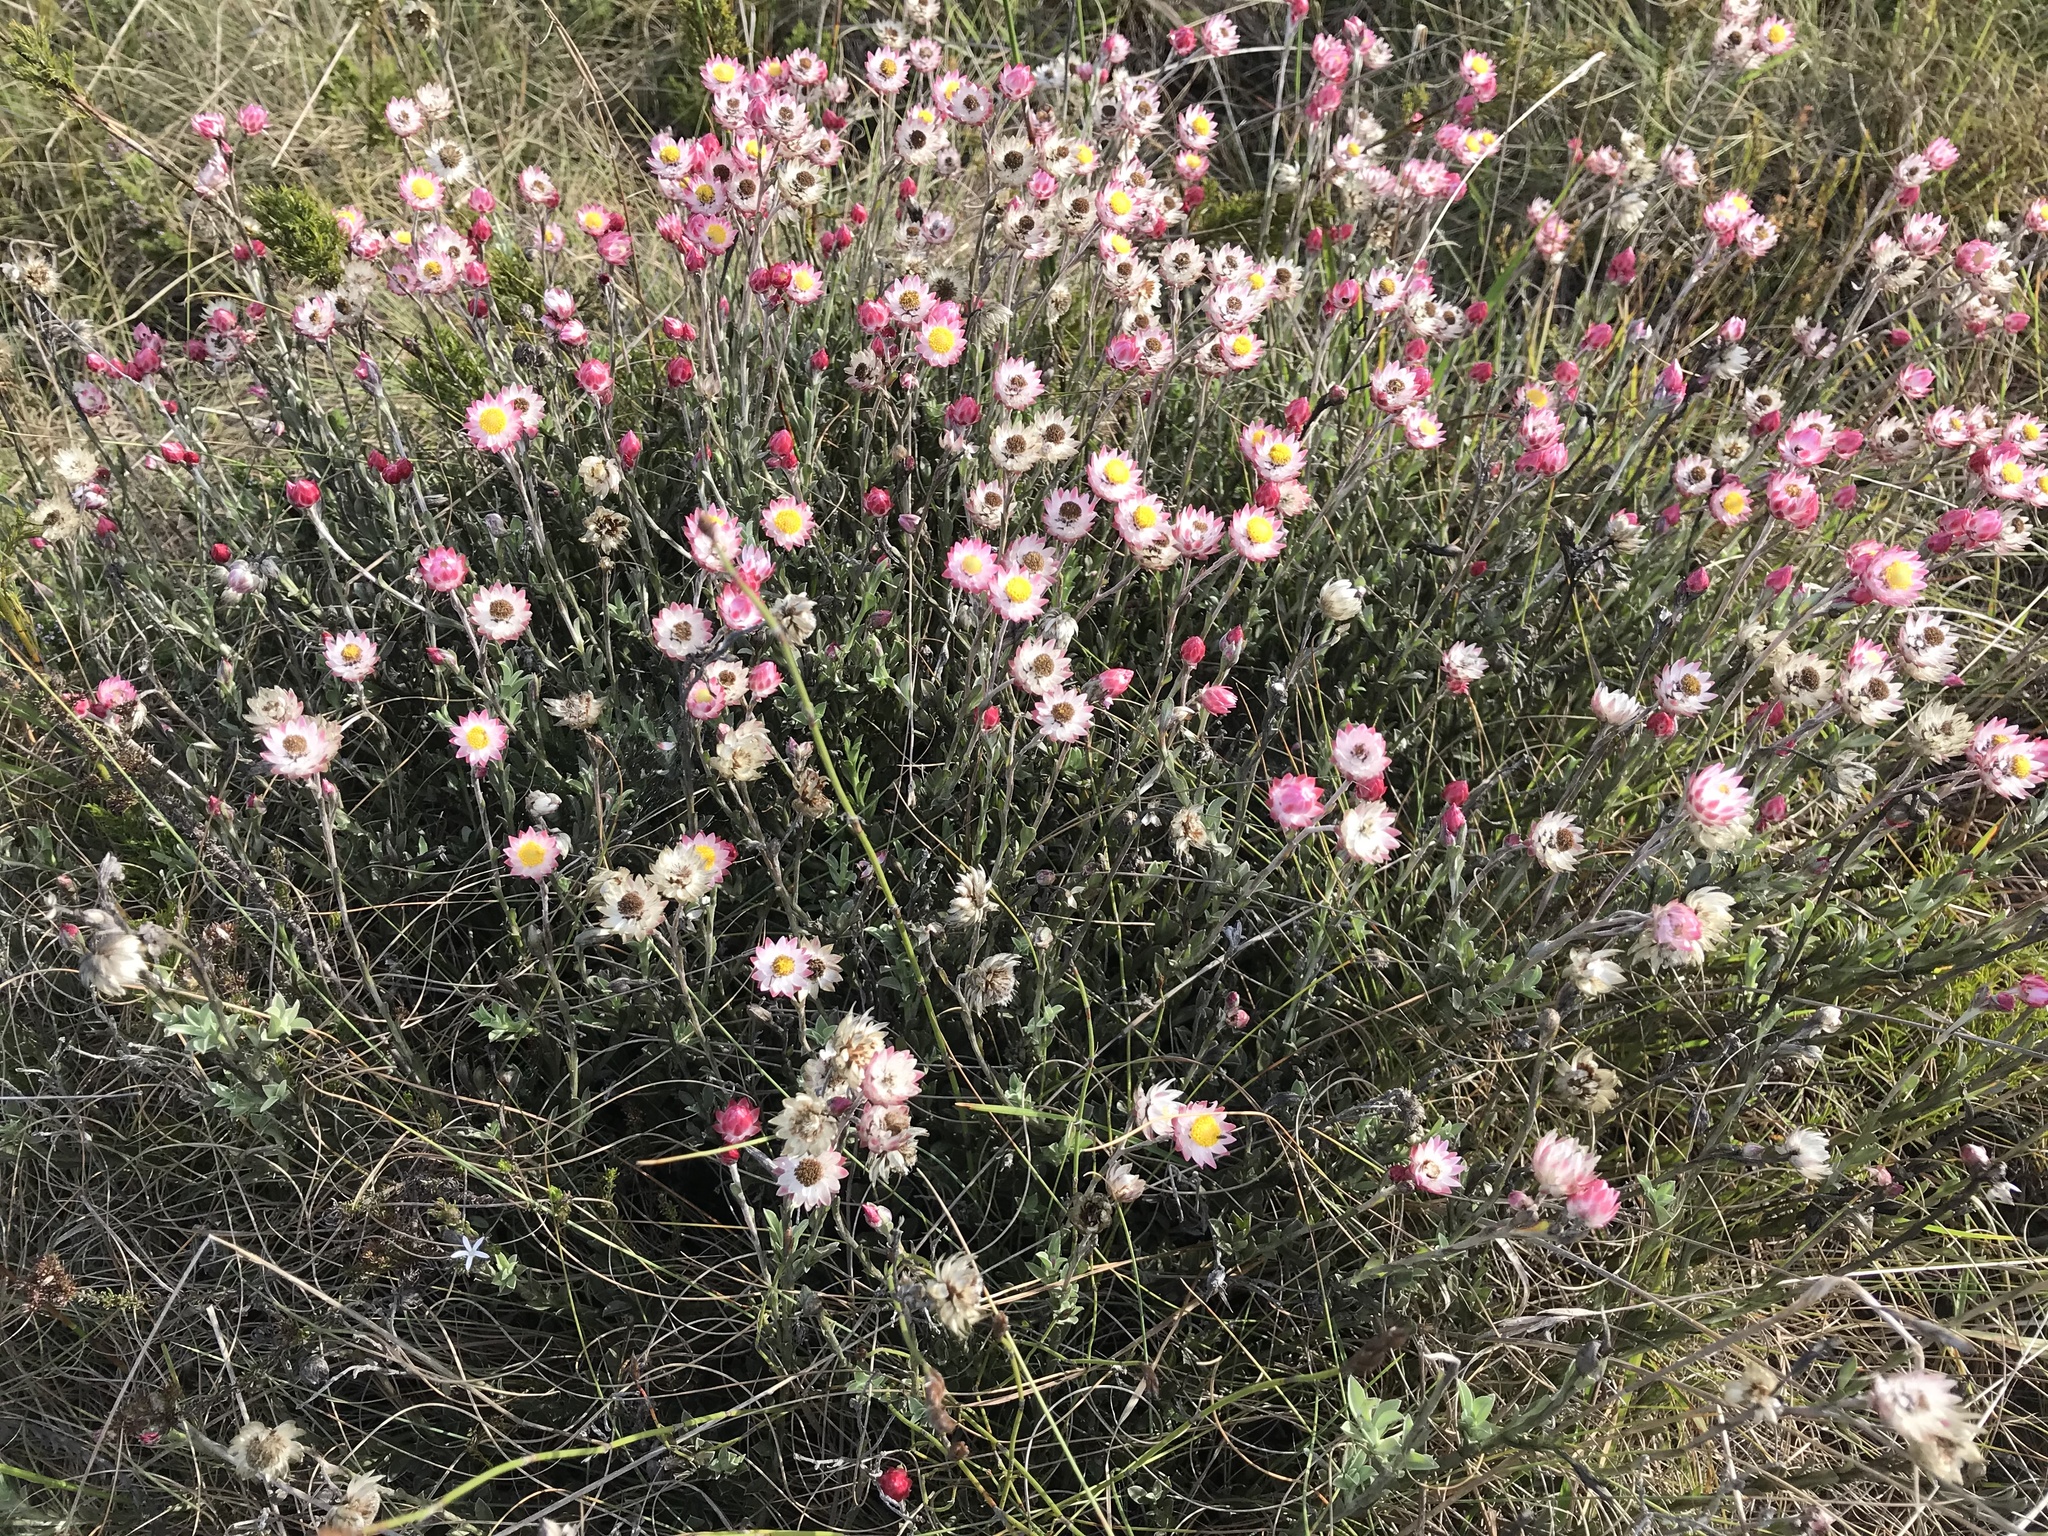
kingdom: Plantae
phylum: Tracheophyta
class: Magnoliopsida
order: Asterales
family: Asteraceae
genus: Achyranthemum
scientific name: Achyranthemum affine
